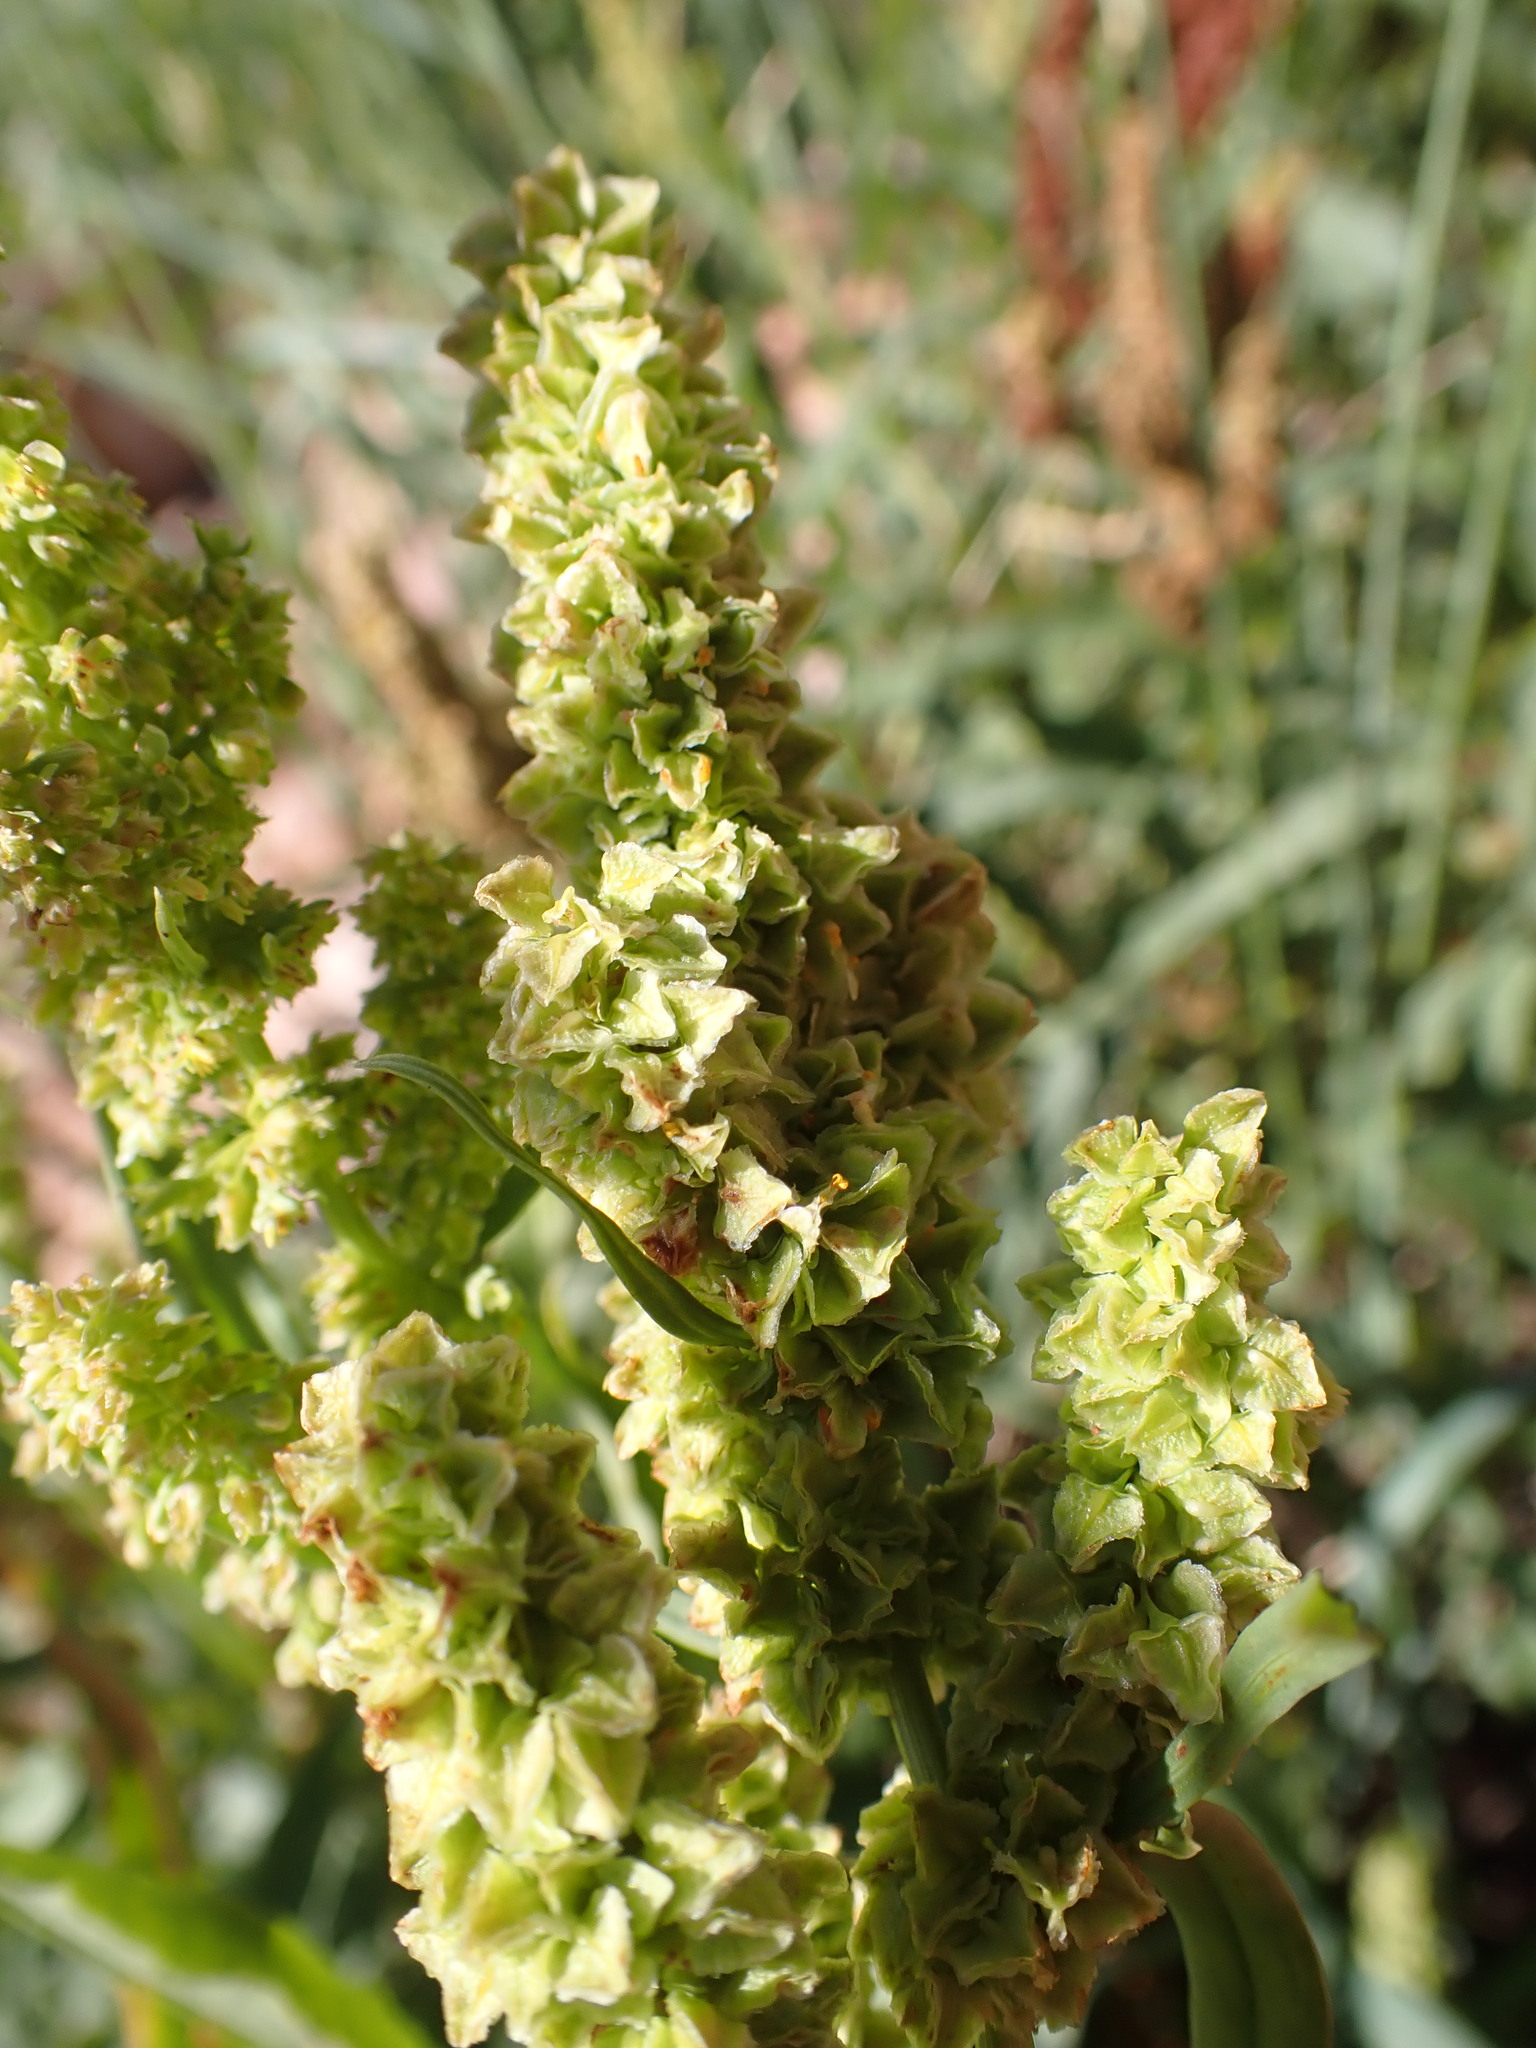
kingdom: Plantae
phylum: Tracheophyta
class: Magnoliopsida
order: Caryophyllales
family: Polygonaceae
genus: Rumex
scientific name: Rumex crispus
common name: Curled dock
